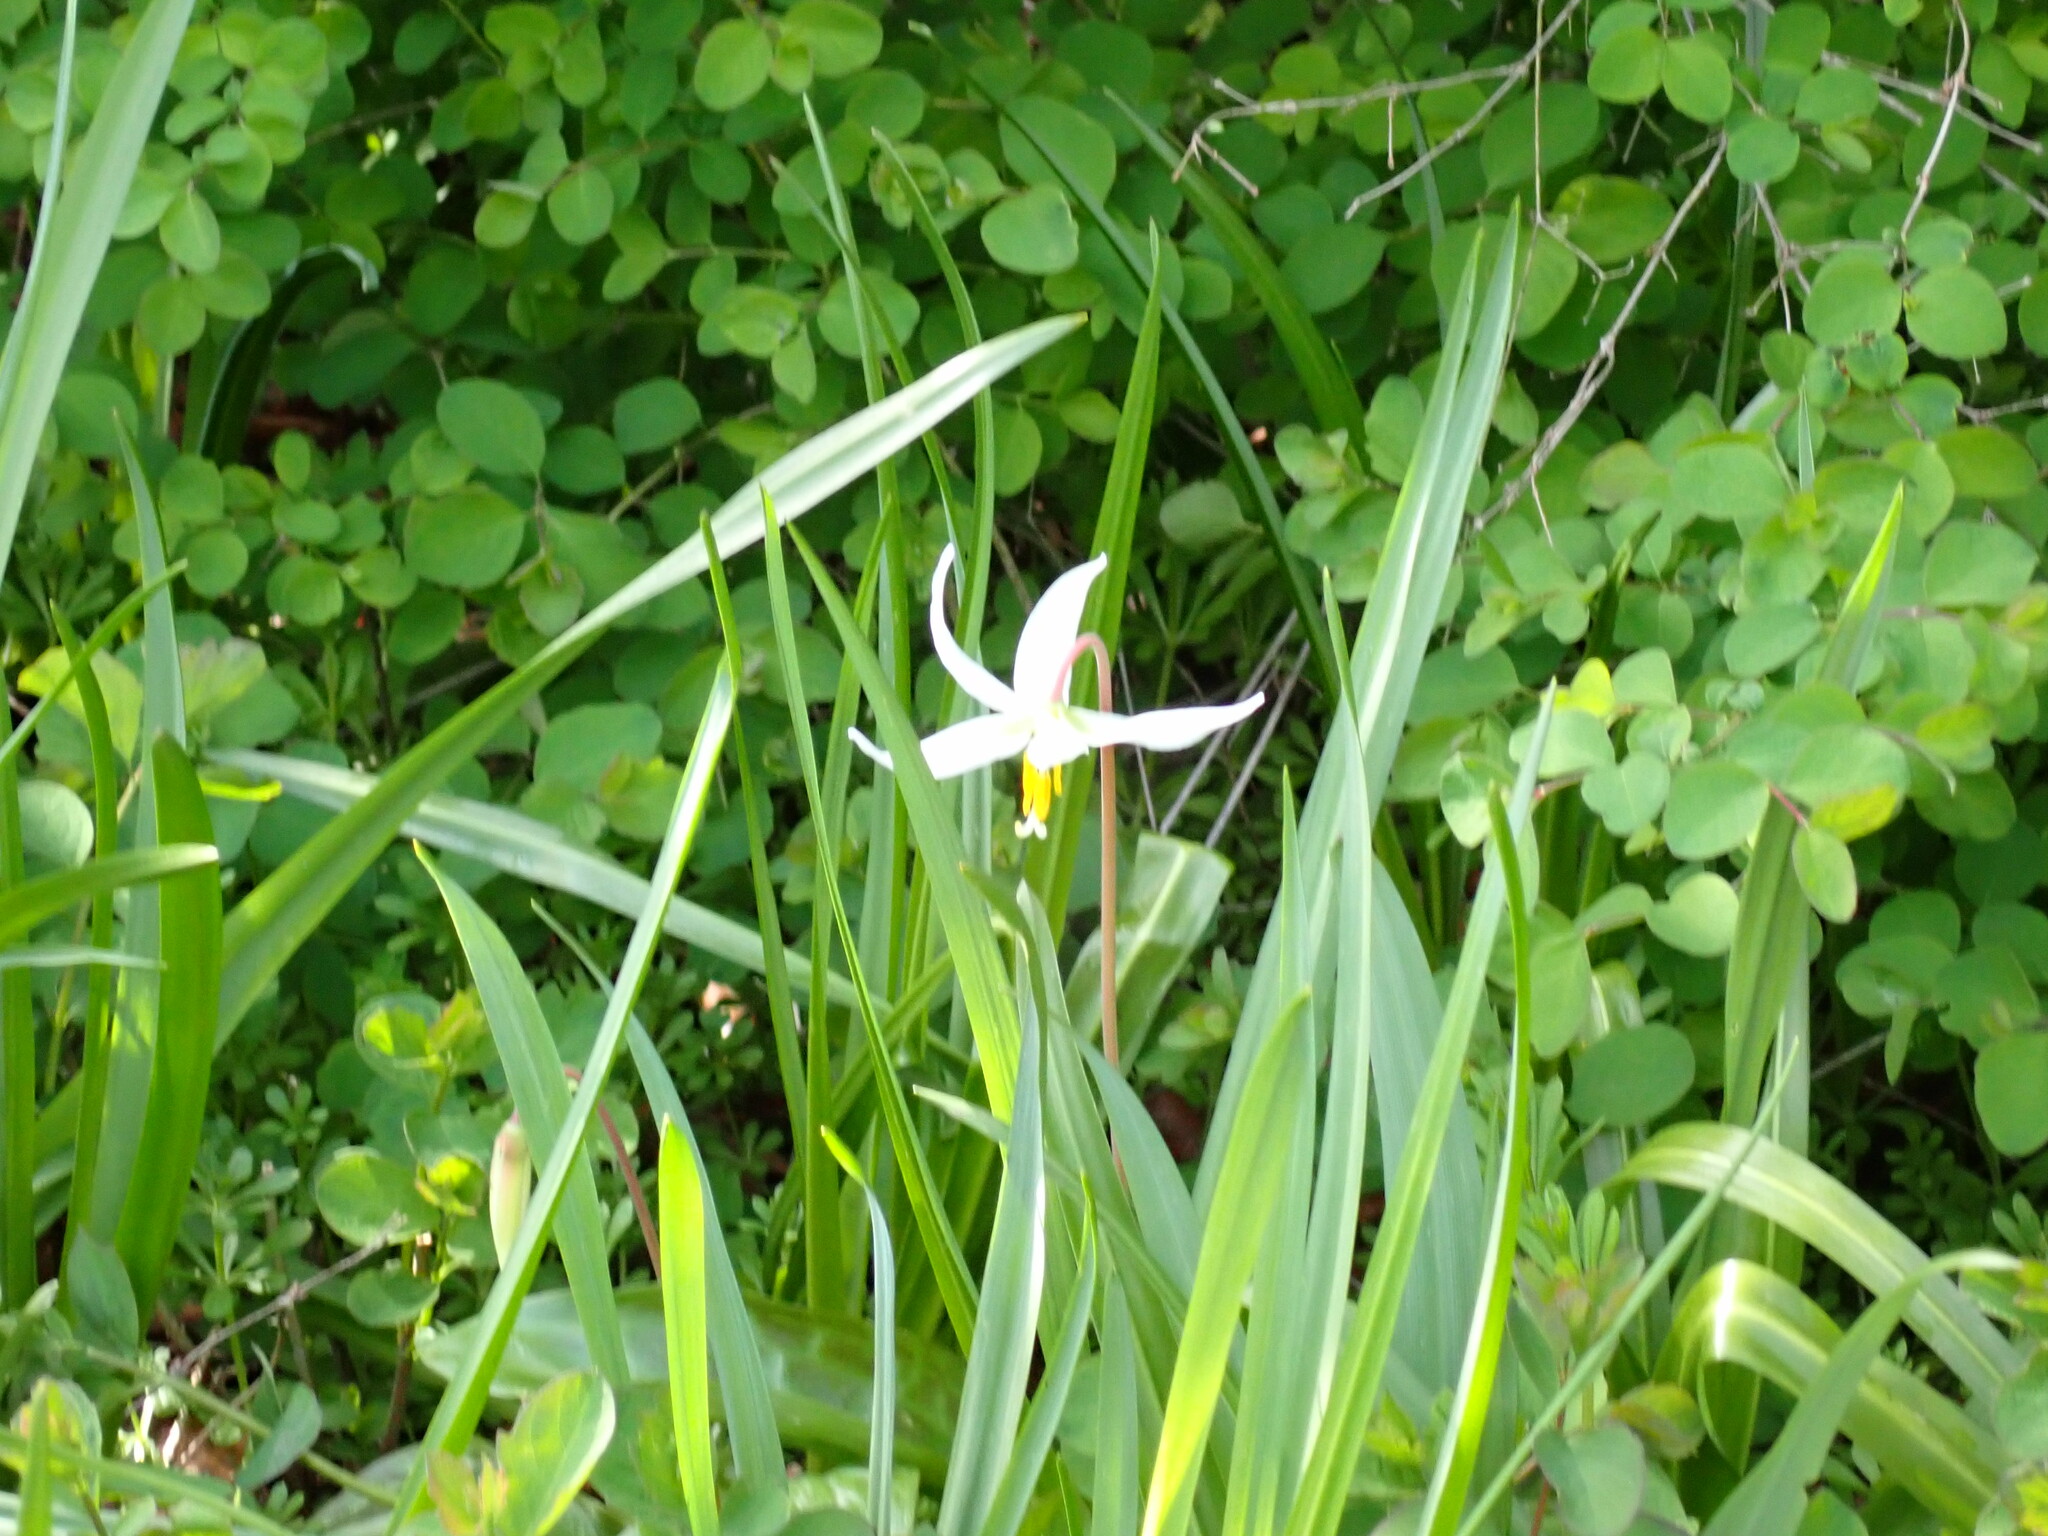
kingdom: Plantae
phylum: Tracheophyta
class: Liliopsida
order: Liliales
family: Liliaceae
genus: Erythronium
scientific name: Erythronium oregonum
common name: Giant adder's-tongue
